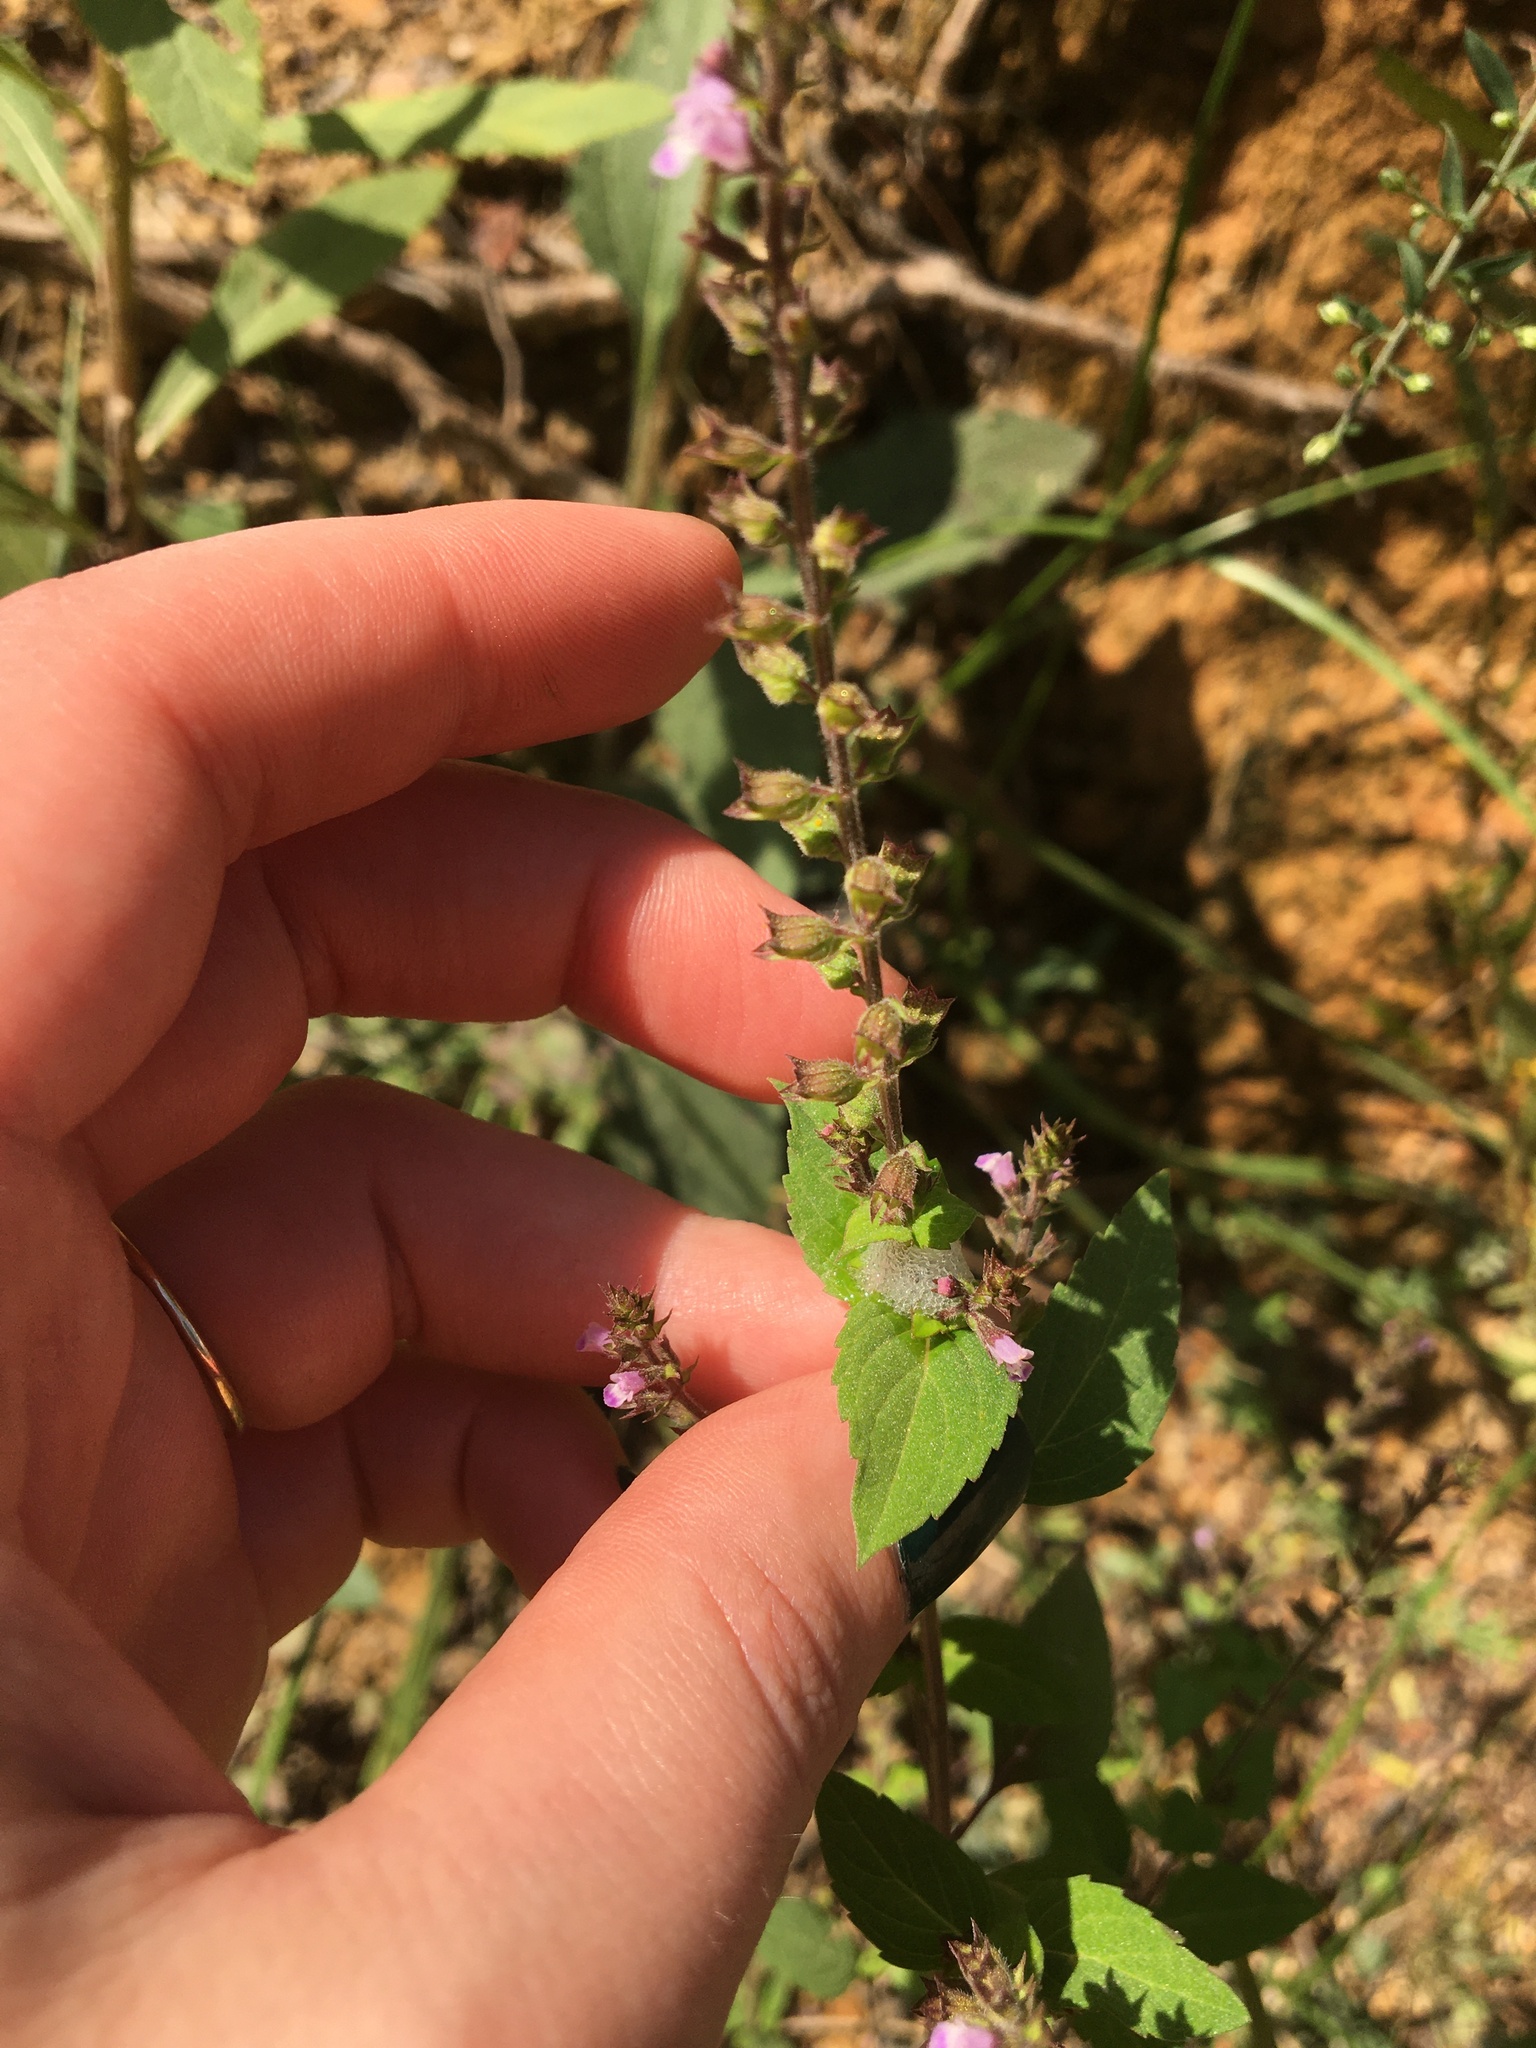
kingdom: Plantae
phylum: Tracheophyta
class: Magnoliopsida
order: Lamiales
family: Lamiaceae
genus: Mosla
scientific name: Mosla dianthera
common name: Miniature beefsteakplant
